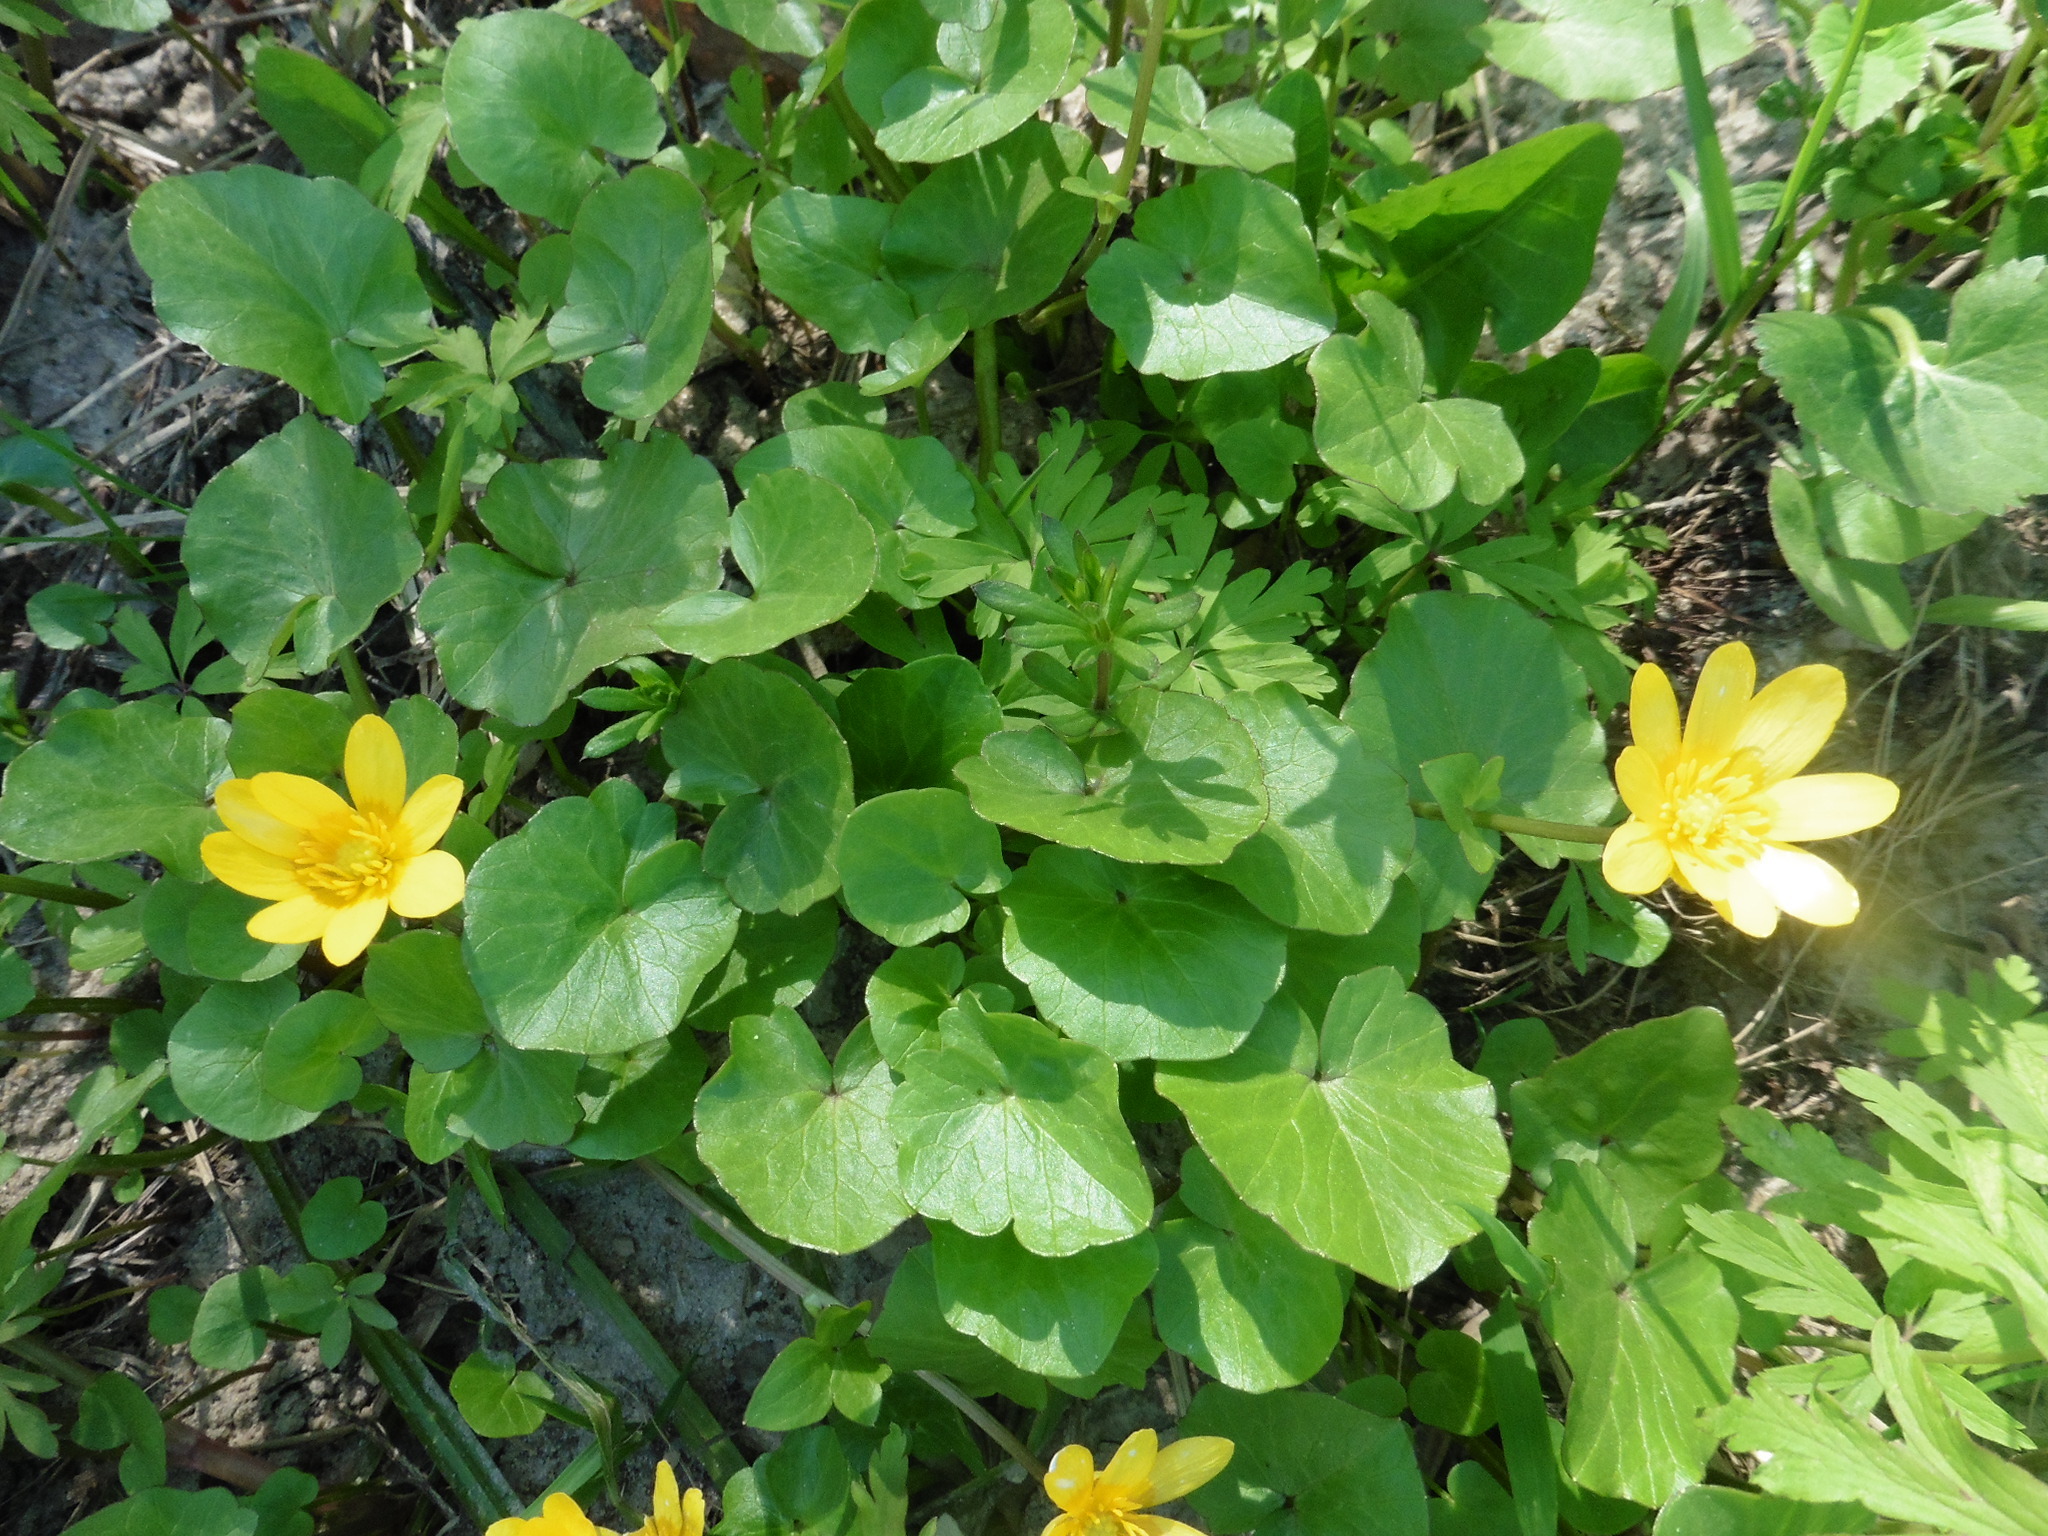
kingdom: Plantae
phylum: Tracheophyta
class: Magnoliopsida
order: Ranunculales
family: Ranunculaceae
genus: Ficaria
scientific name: Ficaria verna
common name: Lesser celandine
